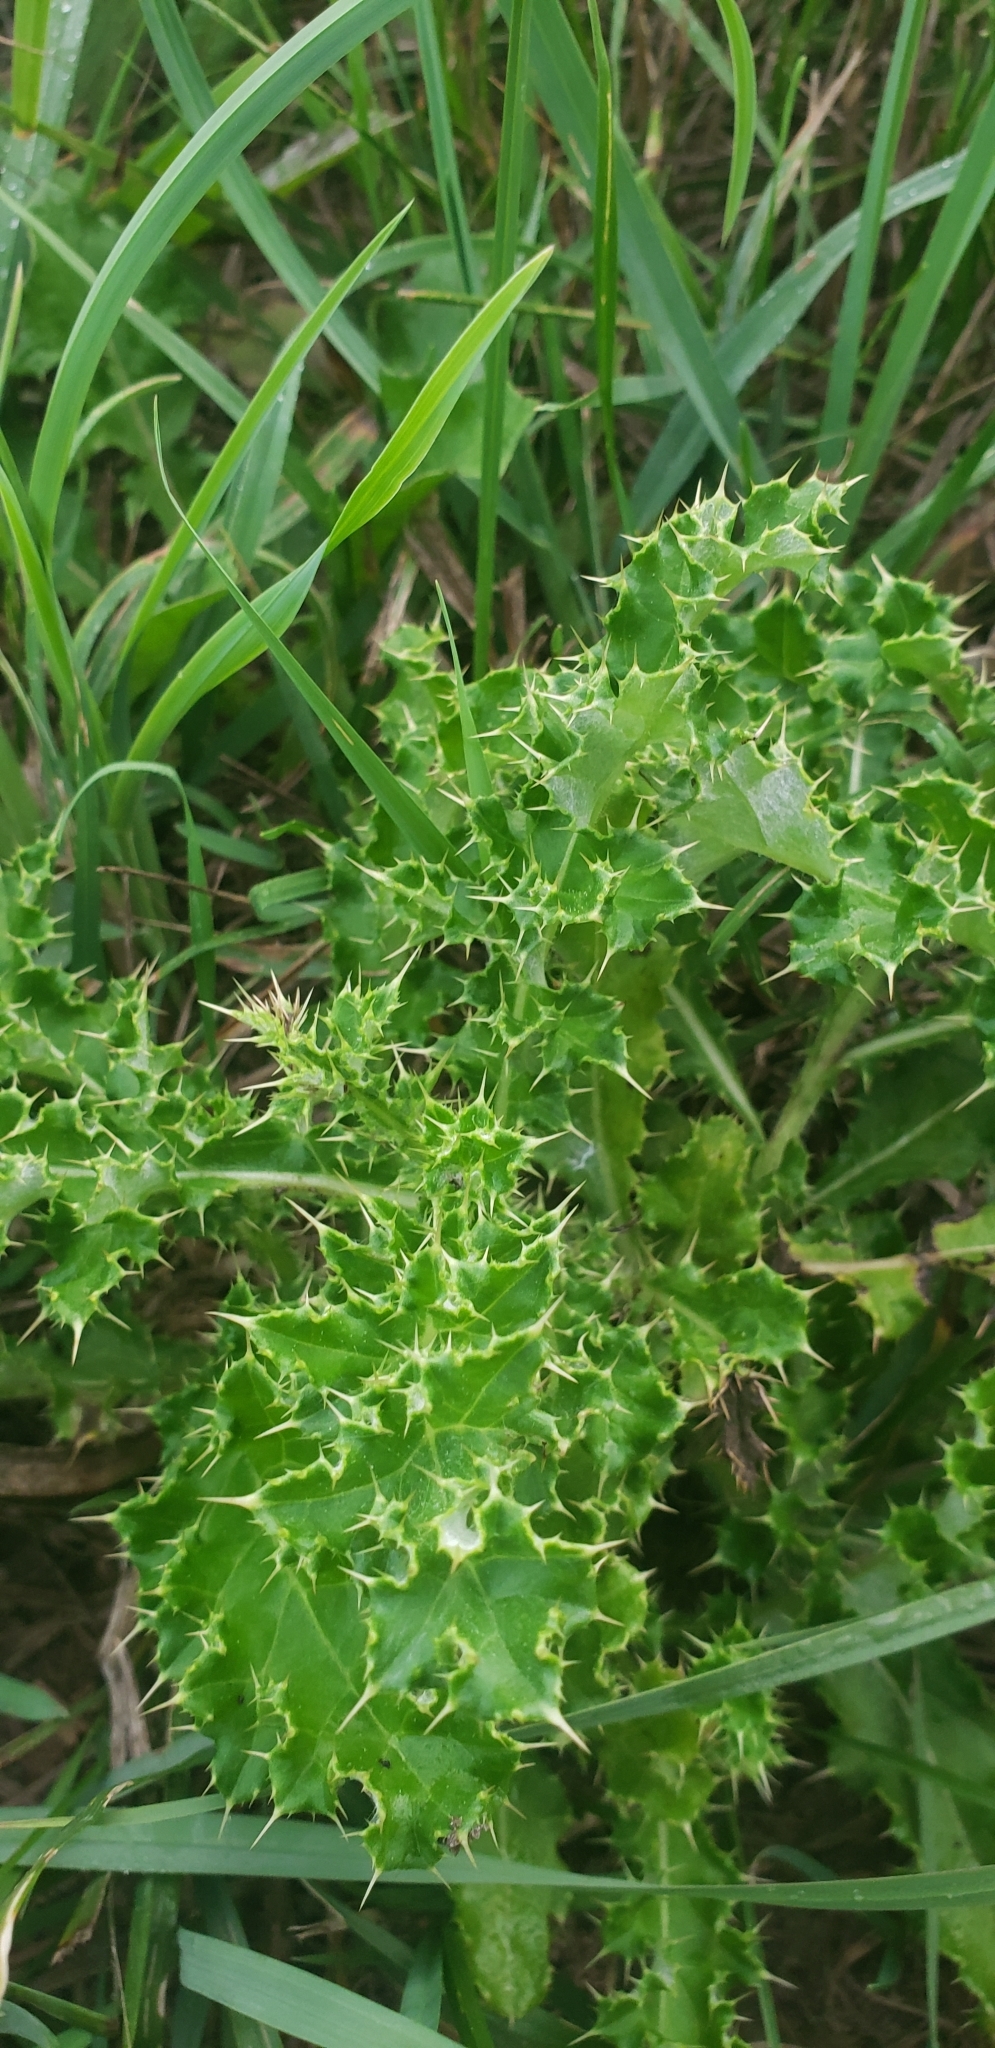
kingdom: Plantae
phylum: Tracheophyta
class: Magnoliopsida
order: Asterales
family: Asteraceae
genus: Cirsium
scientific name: Cirsium arvense
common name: Creeping thistle
